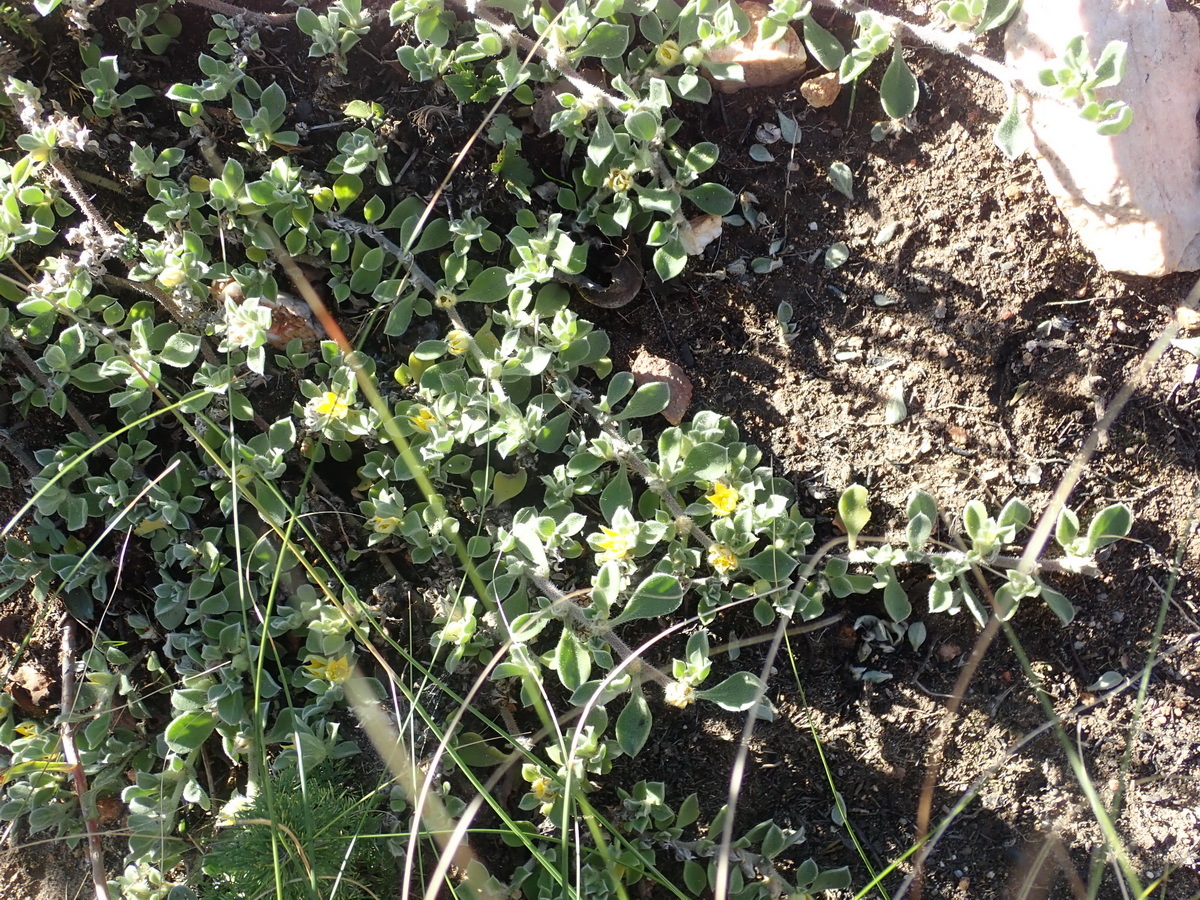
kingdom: Plantae
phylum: Tracheophyta
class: Magnoliopsida
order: Caryophyllales
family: Aizoaceae
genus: Aizoon
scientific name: Aizoon glinoides
